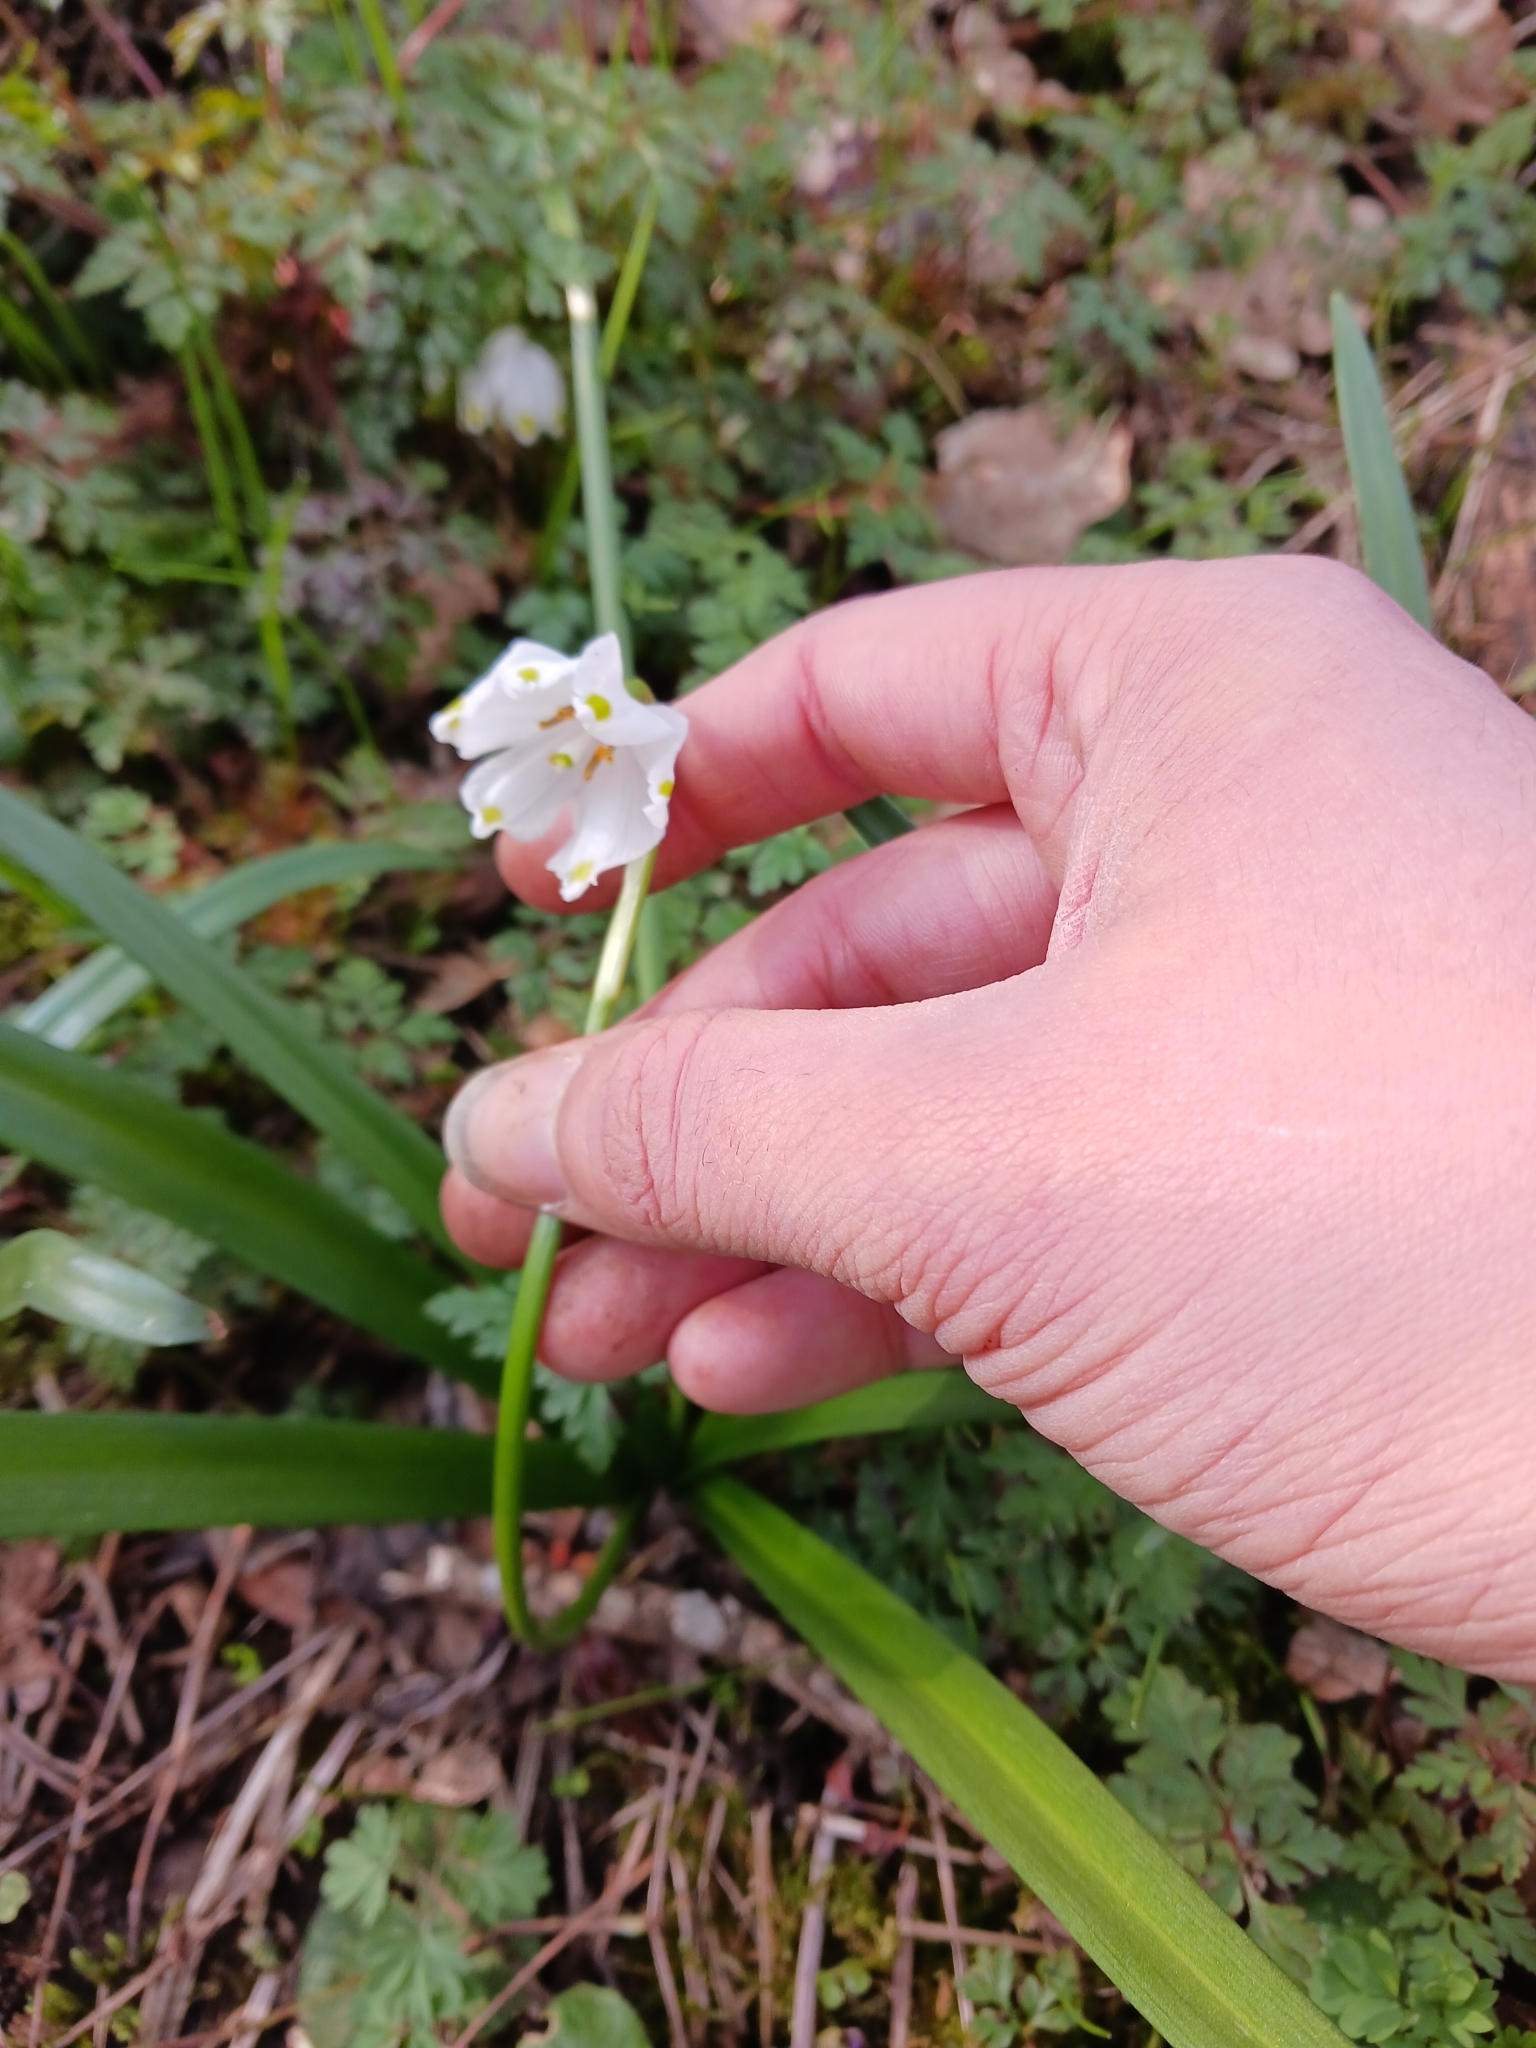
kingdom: Plantae
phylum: Tracheophyta
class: Liliopsida
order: Asparagales
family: Amaryllidaceae
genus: Leucojum
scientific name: Leucojum vernum
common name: Spring snowflake
